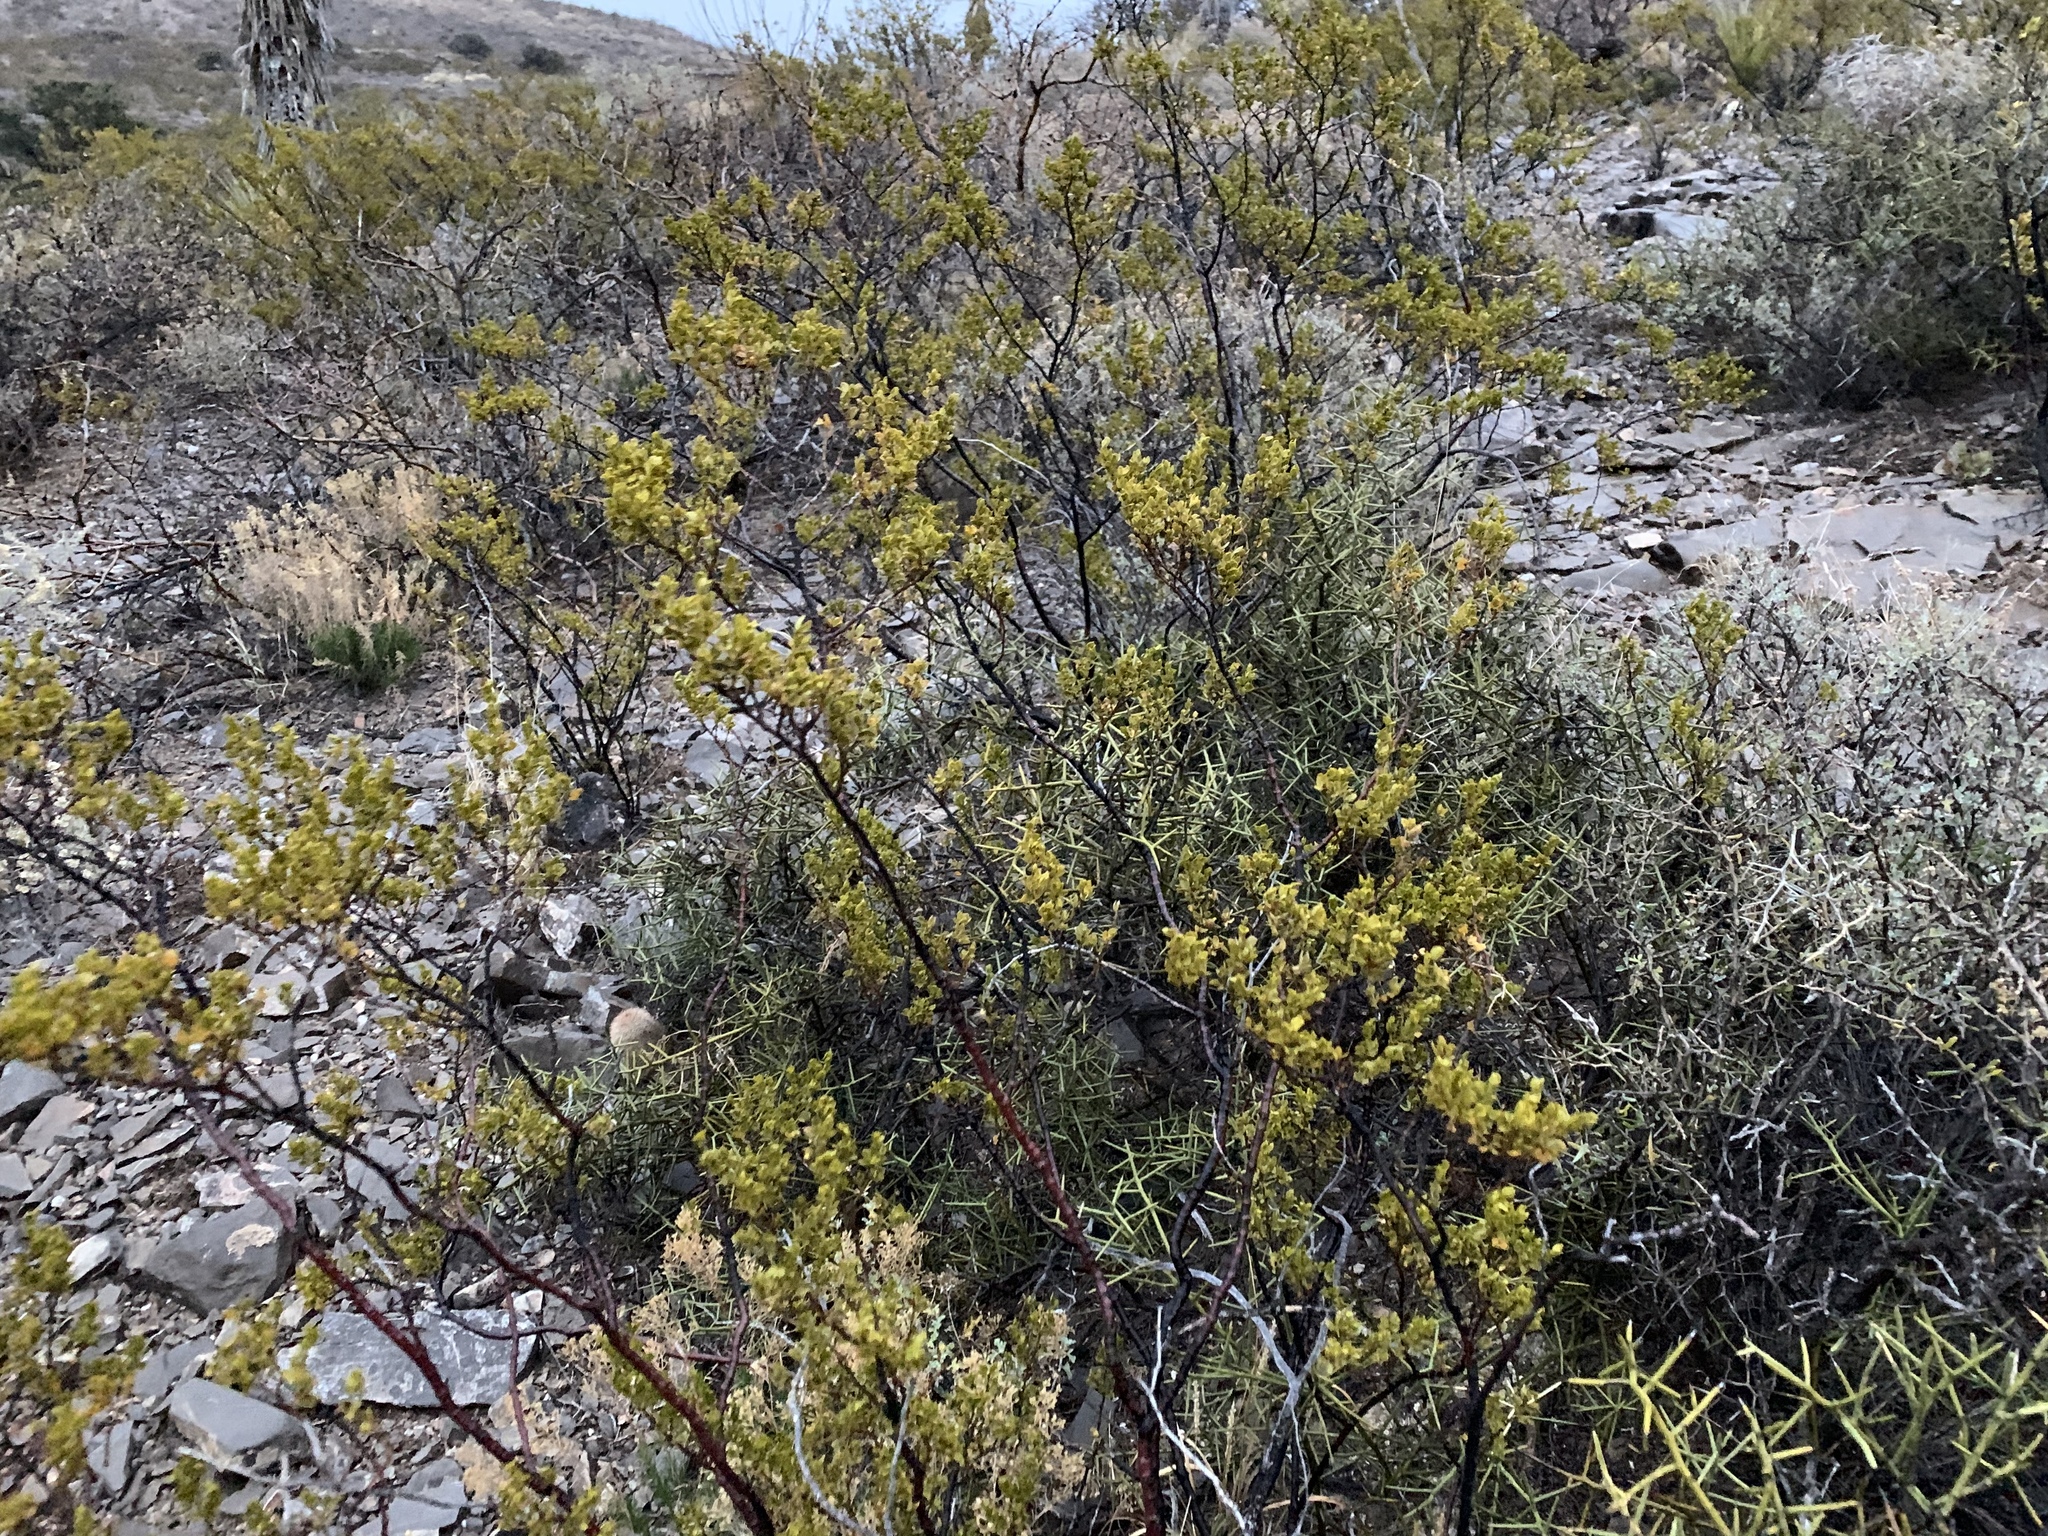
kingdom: Plantae
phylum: Tracheophyta
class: Magnoliopsida
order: Zygophyllales
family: Zygophyllaceae
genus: Larrea
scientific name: Larrea tridentata
